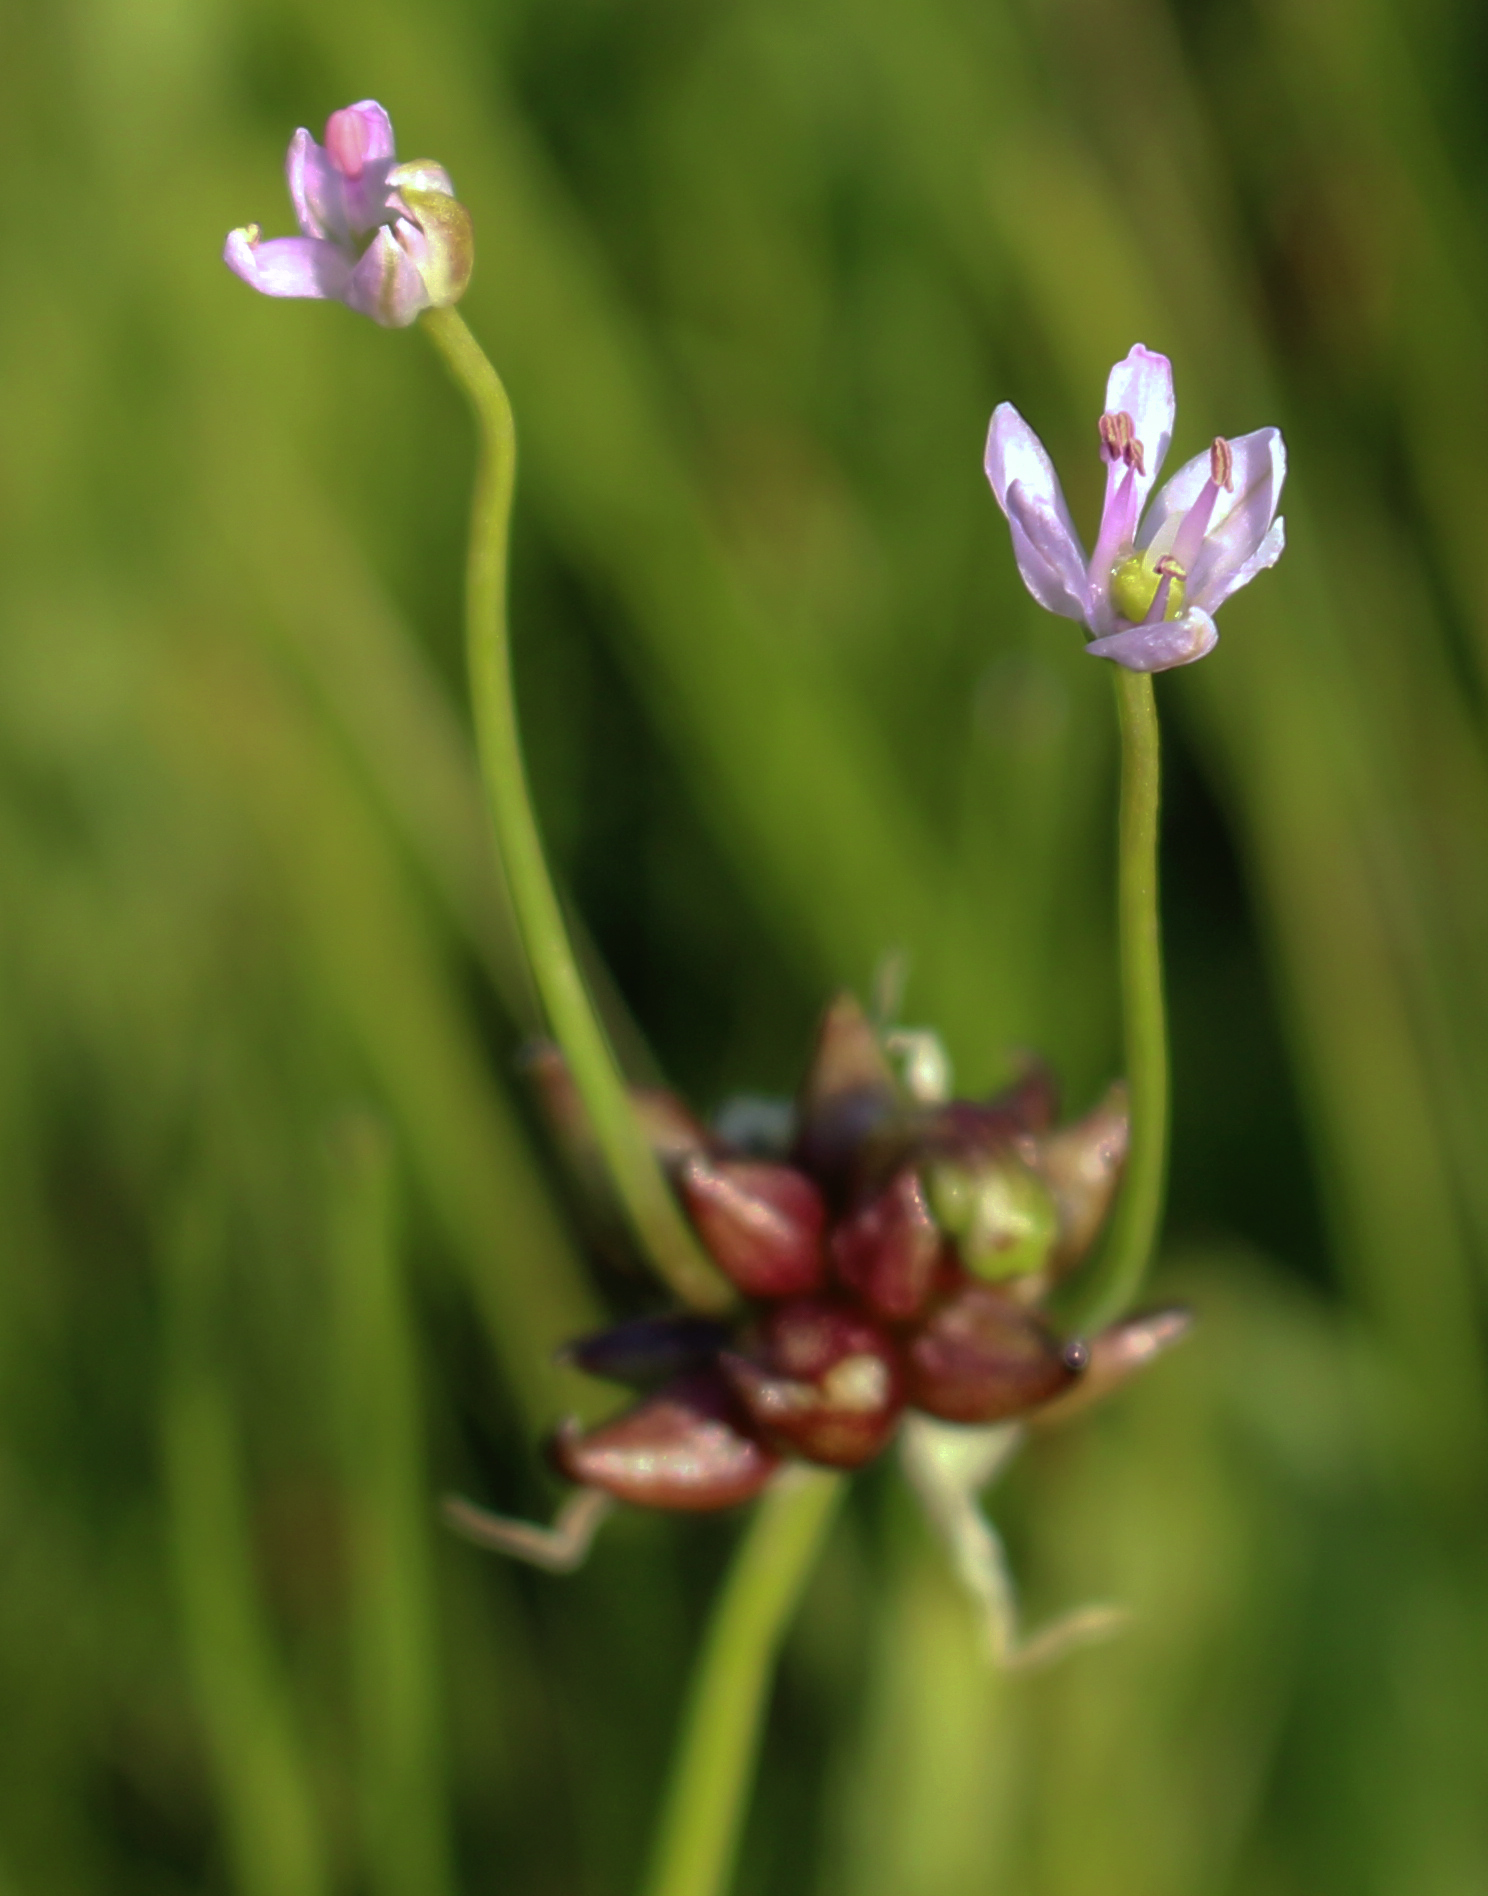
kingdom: Plantae
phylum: Tracheophyta
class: Liliopsida
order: Asparagales
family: Amaryllidaceae
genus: Allium
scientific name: Allium canadense
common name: Meadow garlic
